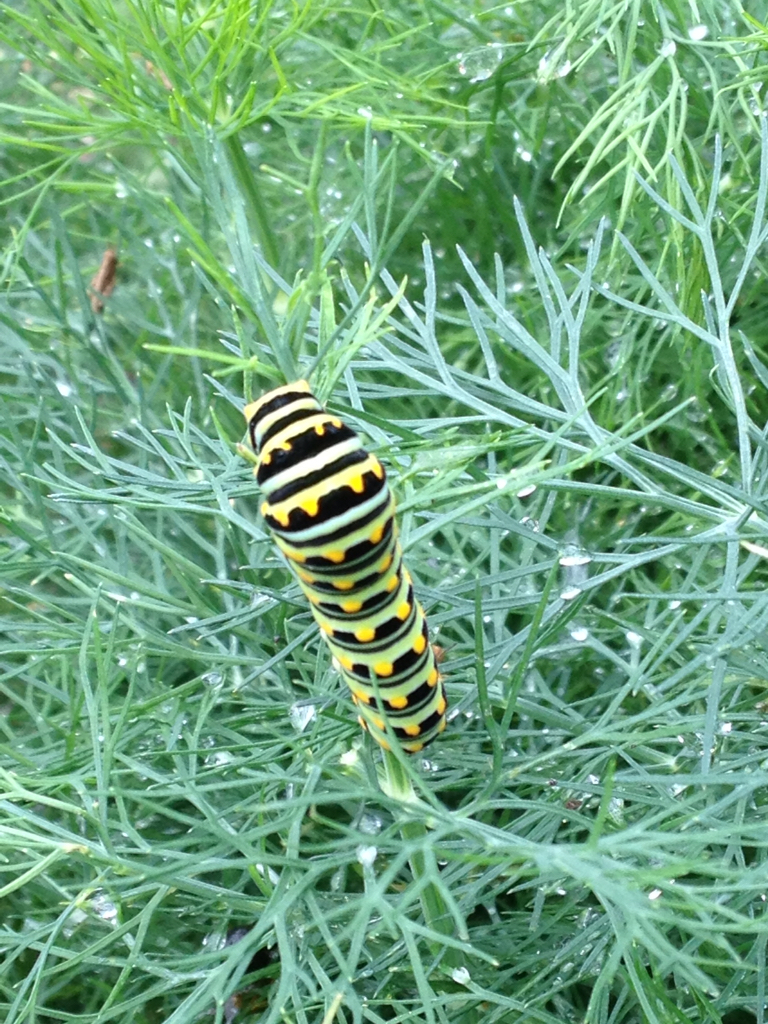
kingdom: Animalia
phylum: Arthropoda
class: Insecta
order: Lepidoptera
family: Papilionidae
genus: Papilio
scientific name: Papilio polyxenes
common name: Black swallowtail
